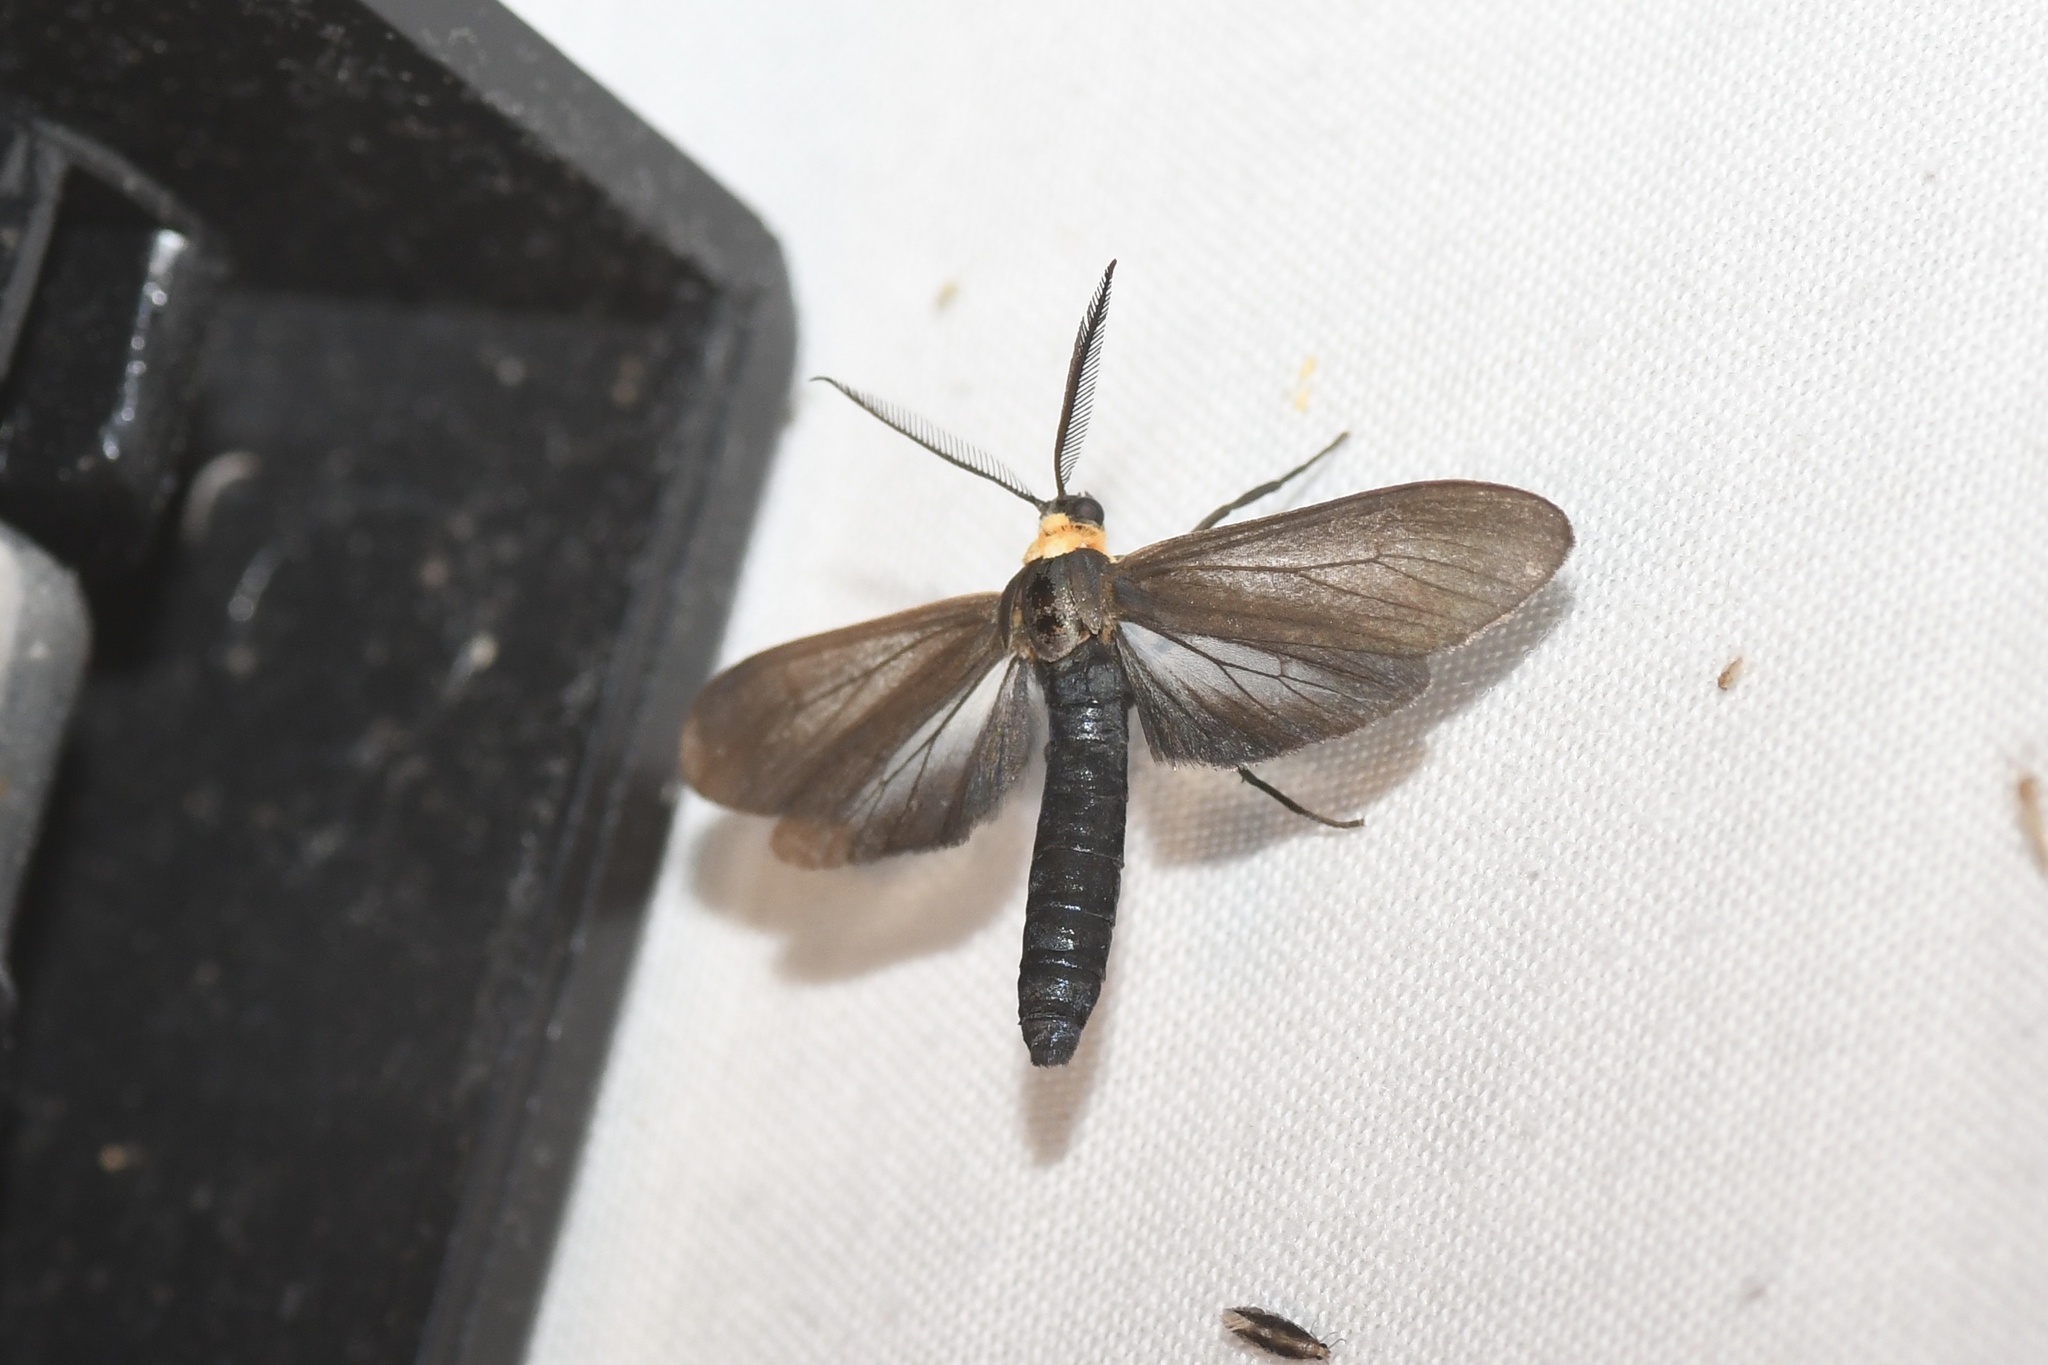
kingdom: Animalia
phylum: Arthropoda
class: Insecta
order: Lepidoptera
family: Erebidae
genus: Cisseps
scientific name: Cisseps fulvicollis
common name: Yellow-collared scape moth
